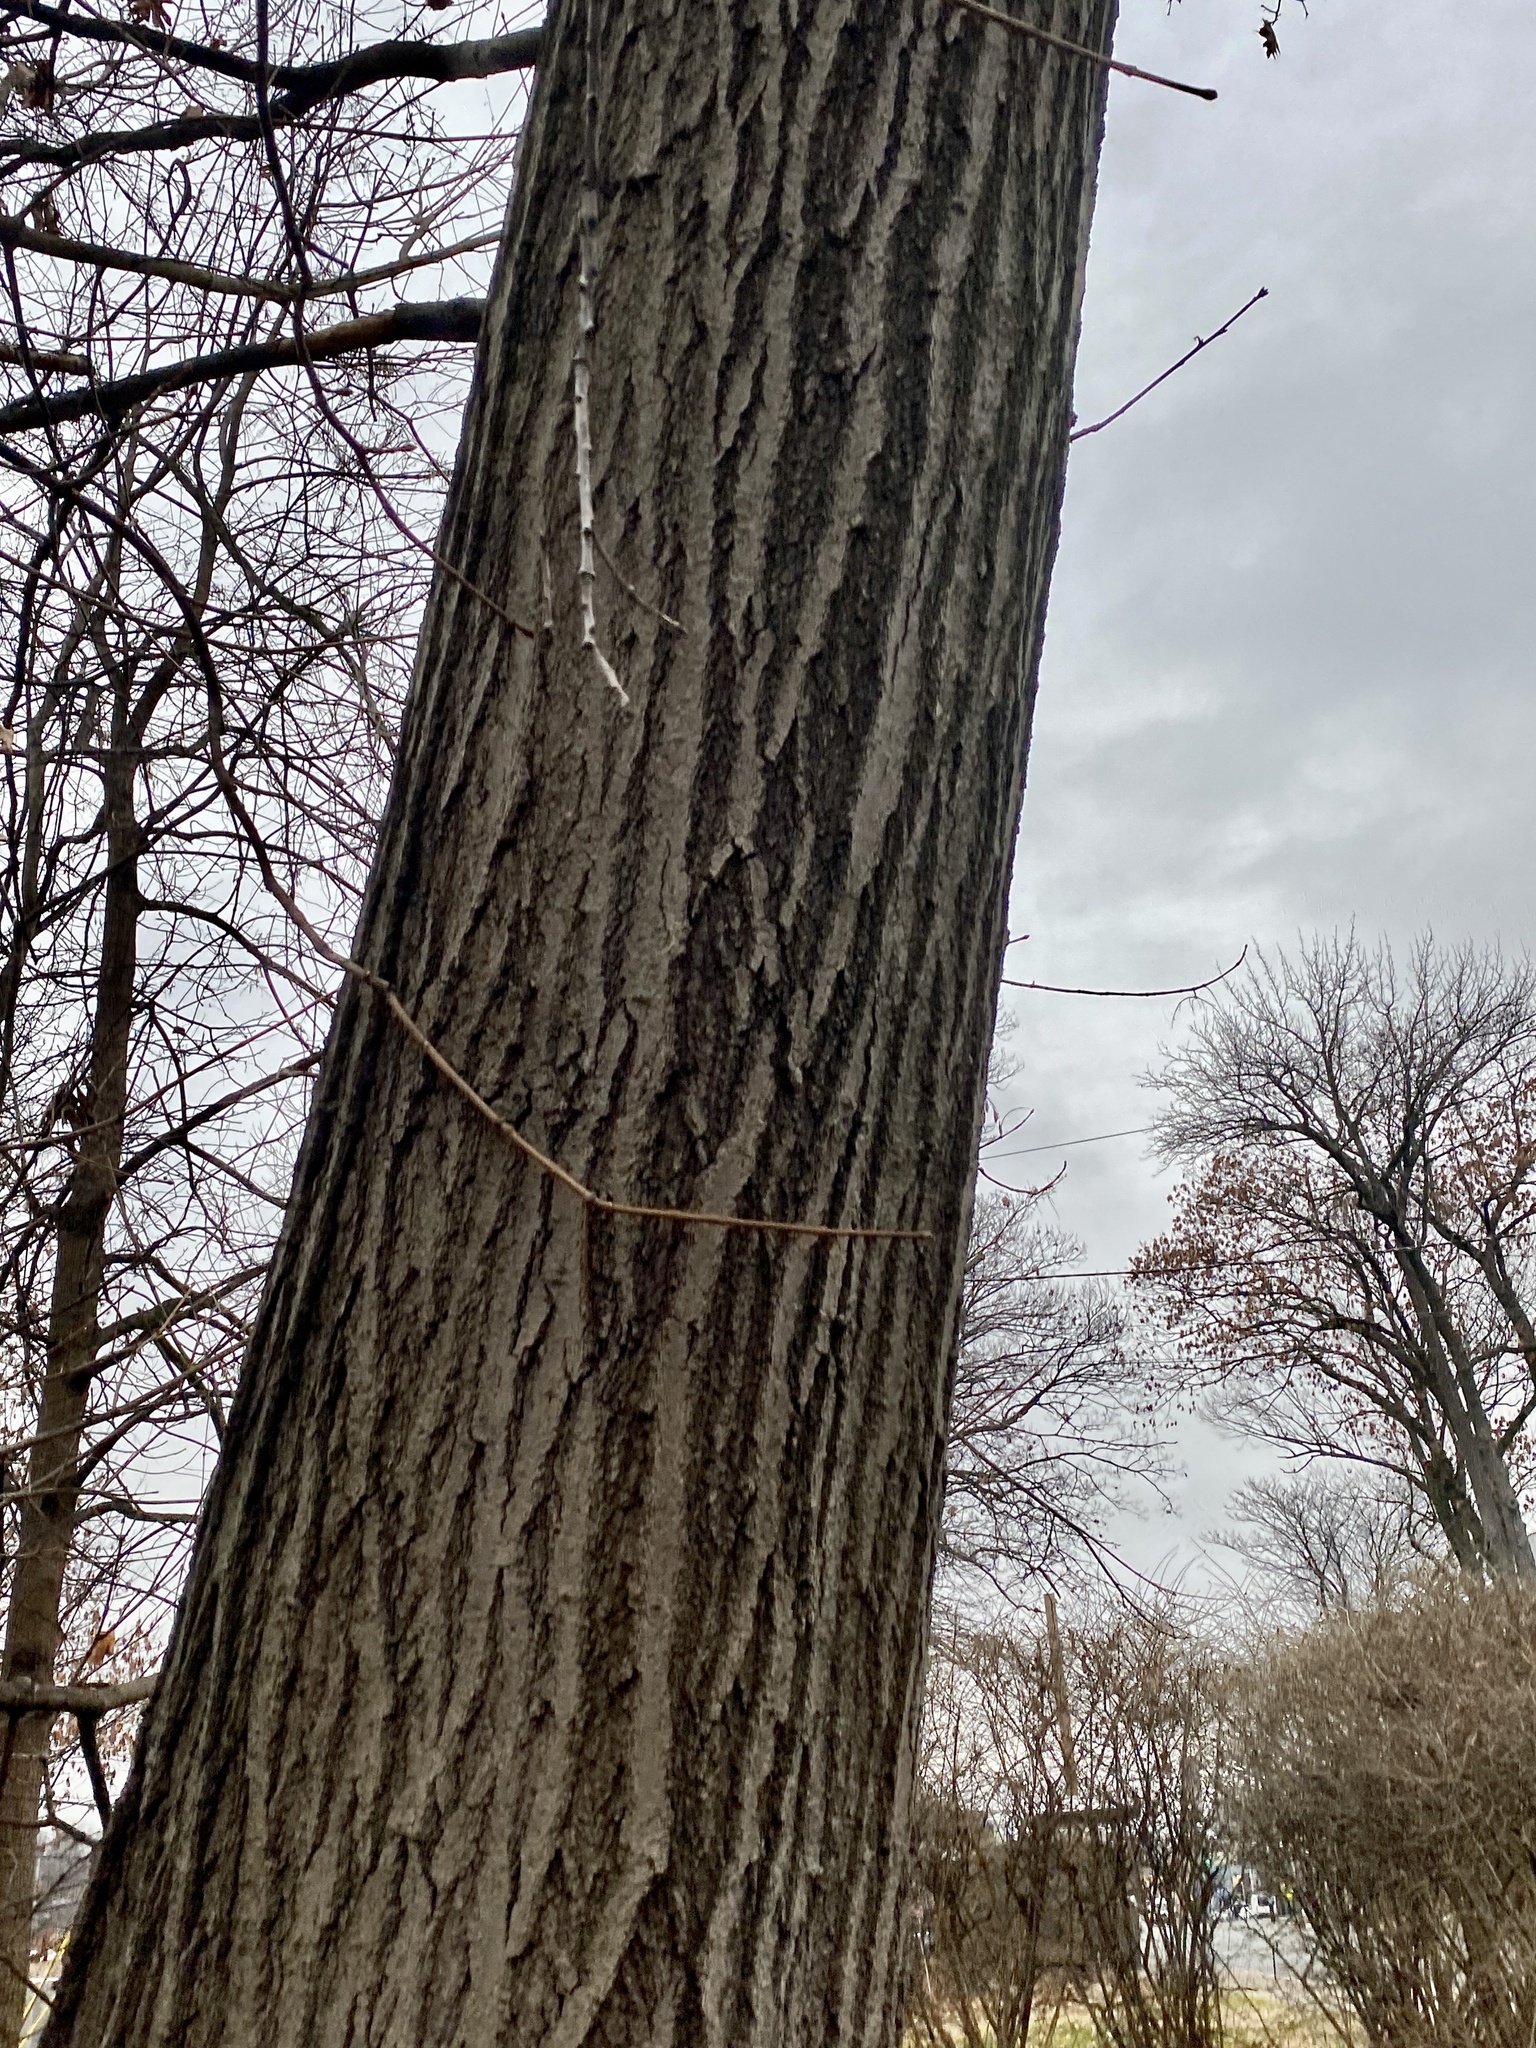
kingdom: Plantae
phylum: Tracheophyta
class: Magnoliopsida
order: Fagales
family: Fagaceae
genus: Quercus
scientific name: Quercus rubra
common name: Red oak
